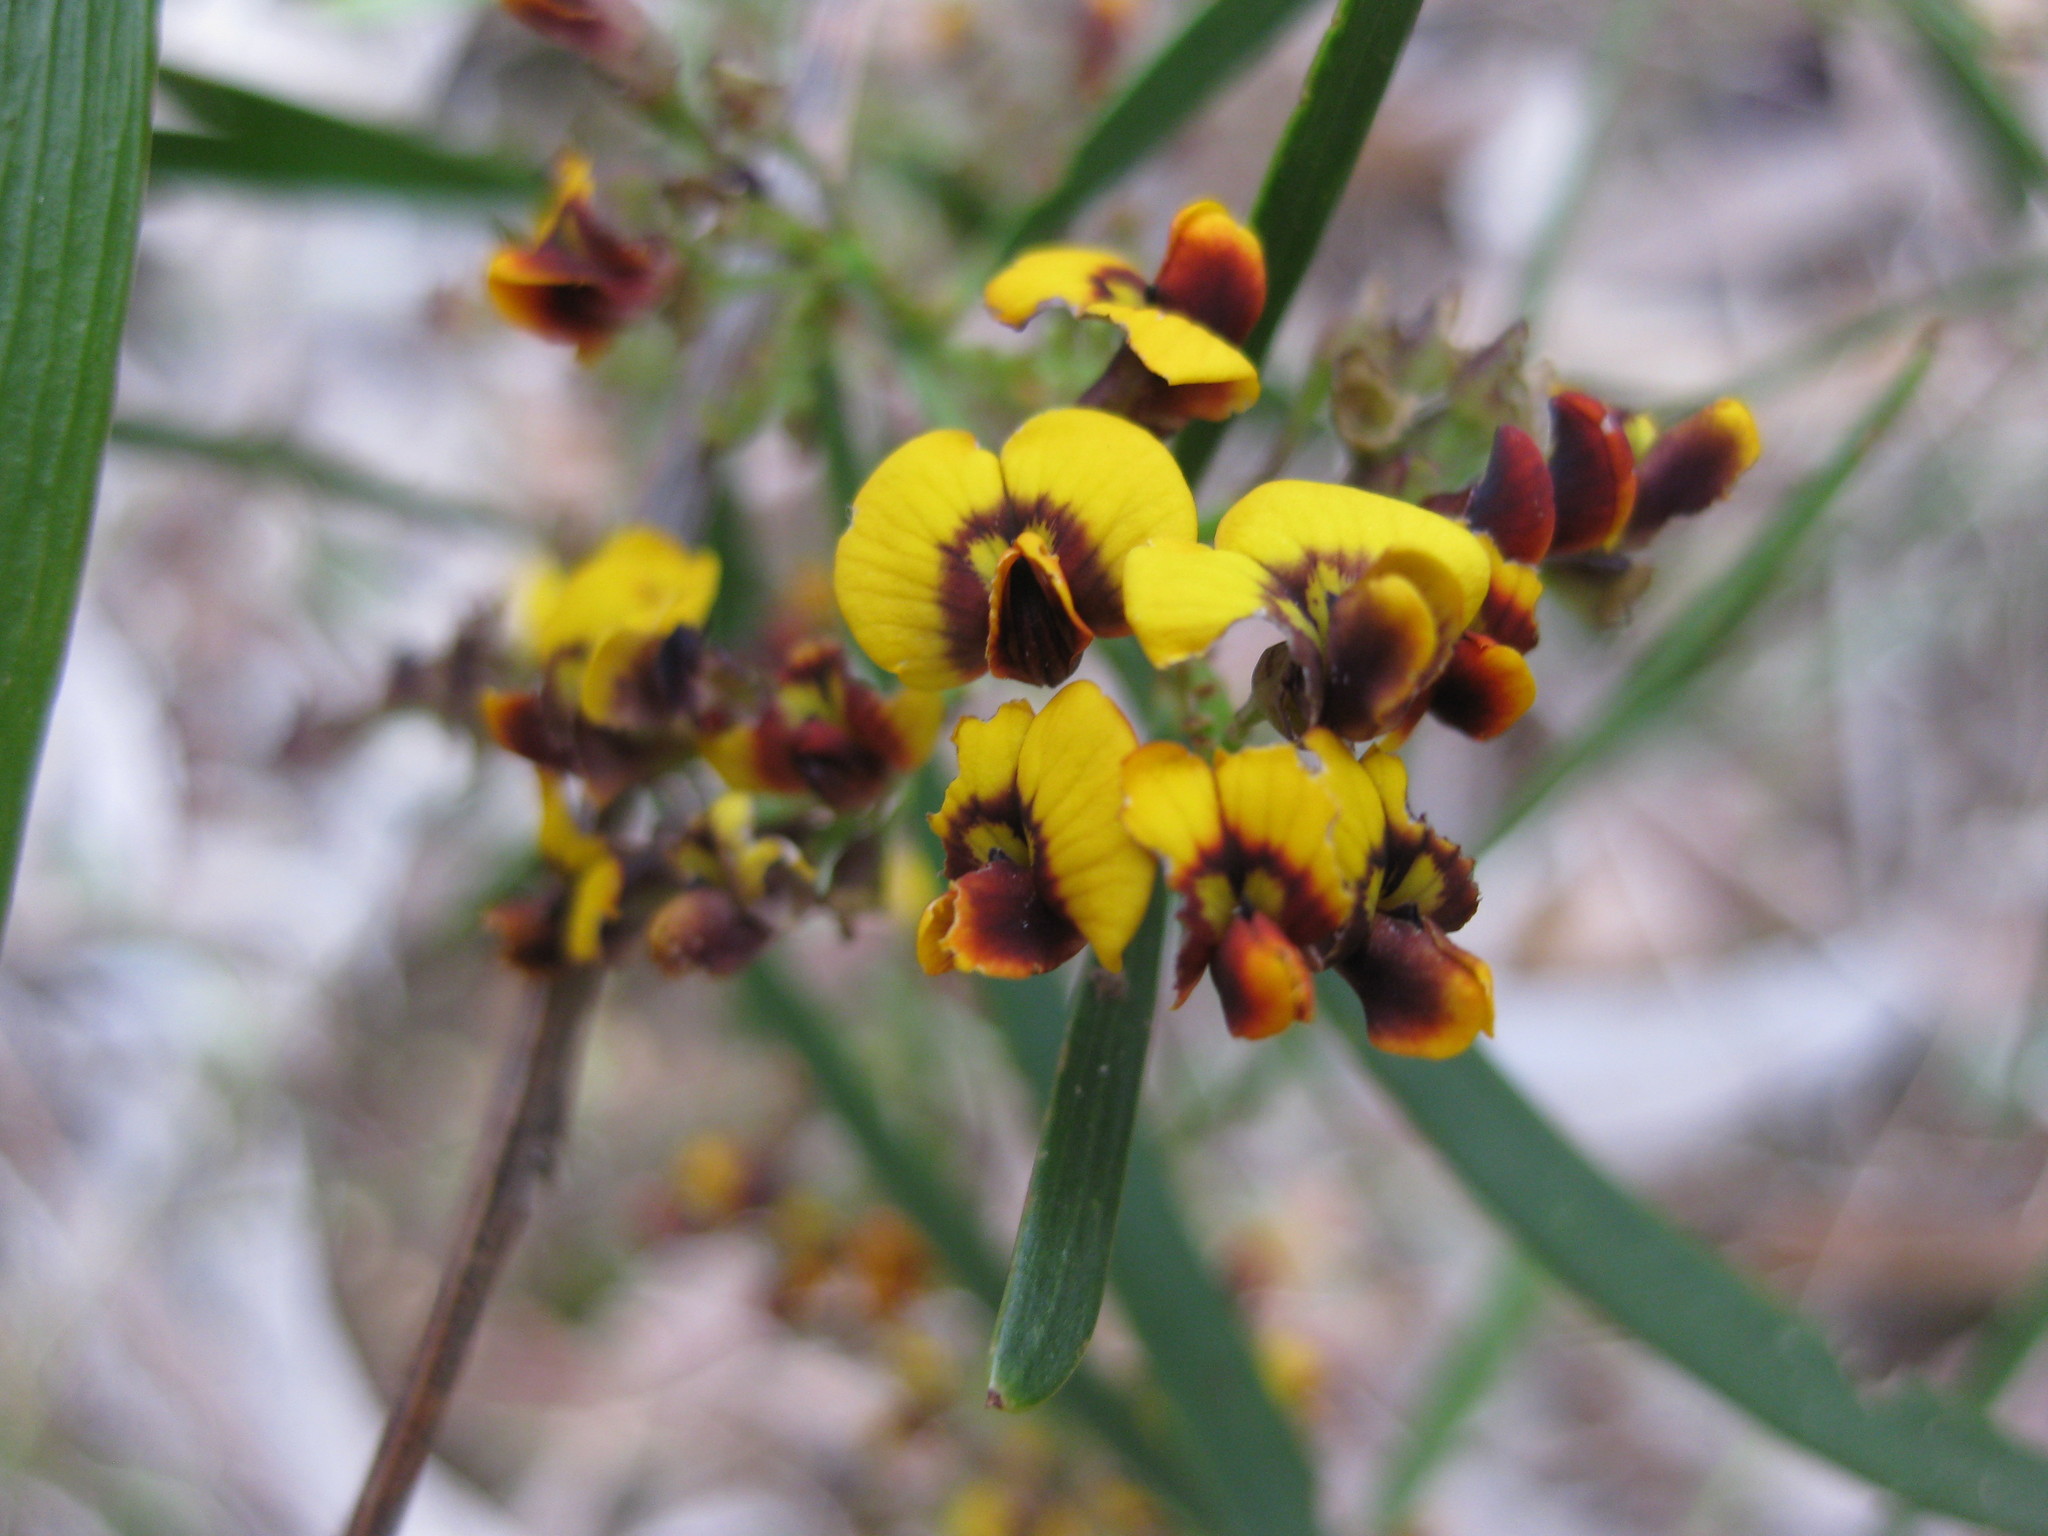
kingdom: Plantae
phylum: Tracheophyta
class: Magnoliopsida
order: Fabales
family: Fabaceae
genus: Daviesia
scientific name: Daviesia leptophylla
